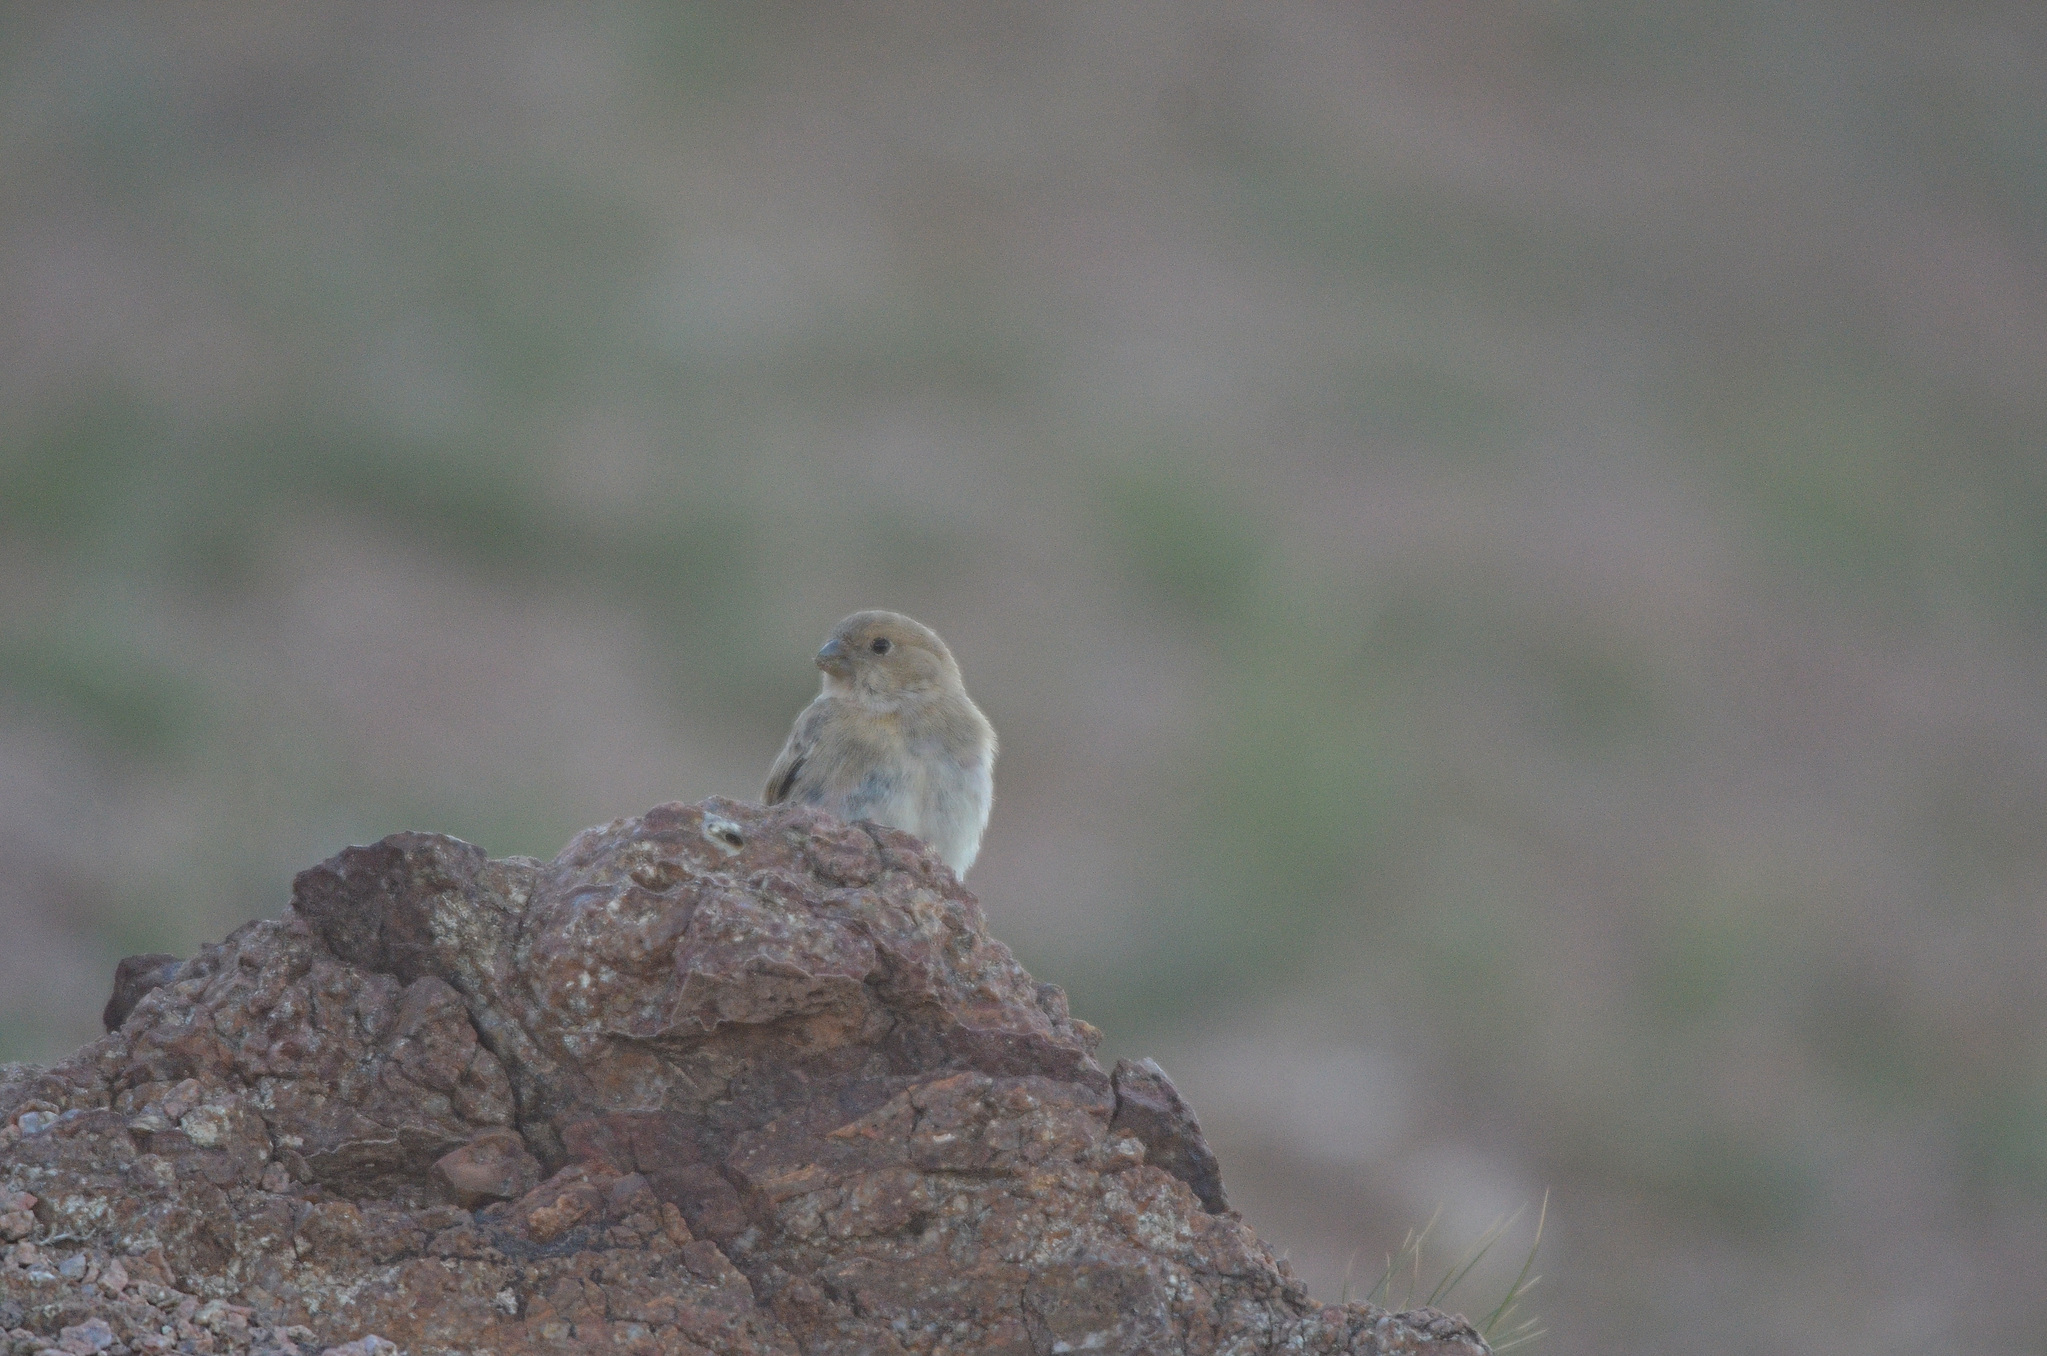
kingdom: Animalia
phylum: Chordata
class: Aves
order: Passeriformes
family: Fringillidae
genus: Bucanetes
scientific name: Bucanetes mongolicus
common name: Mongolian finch
